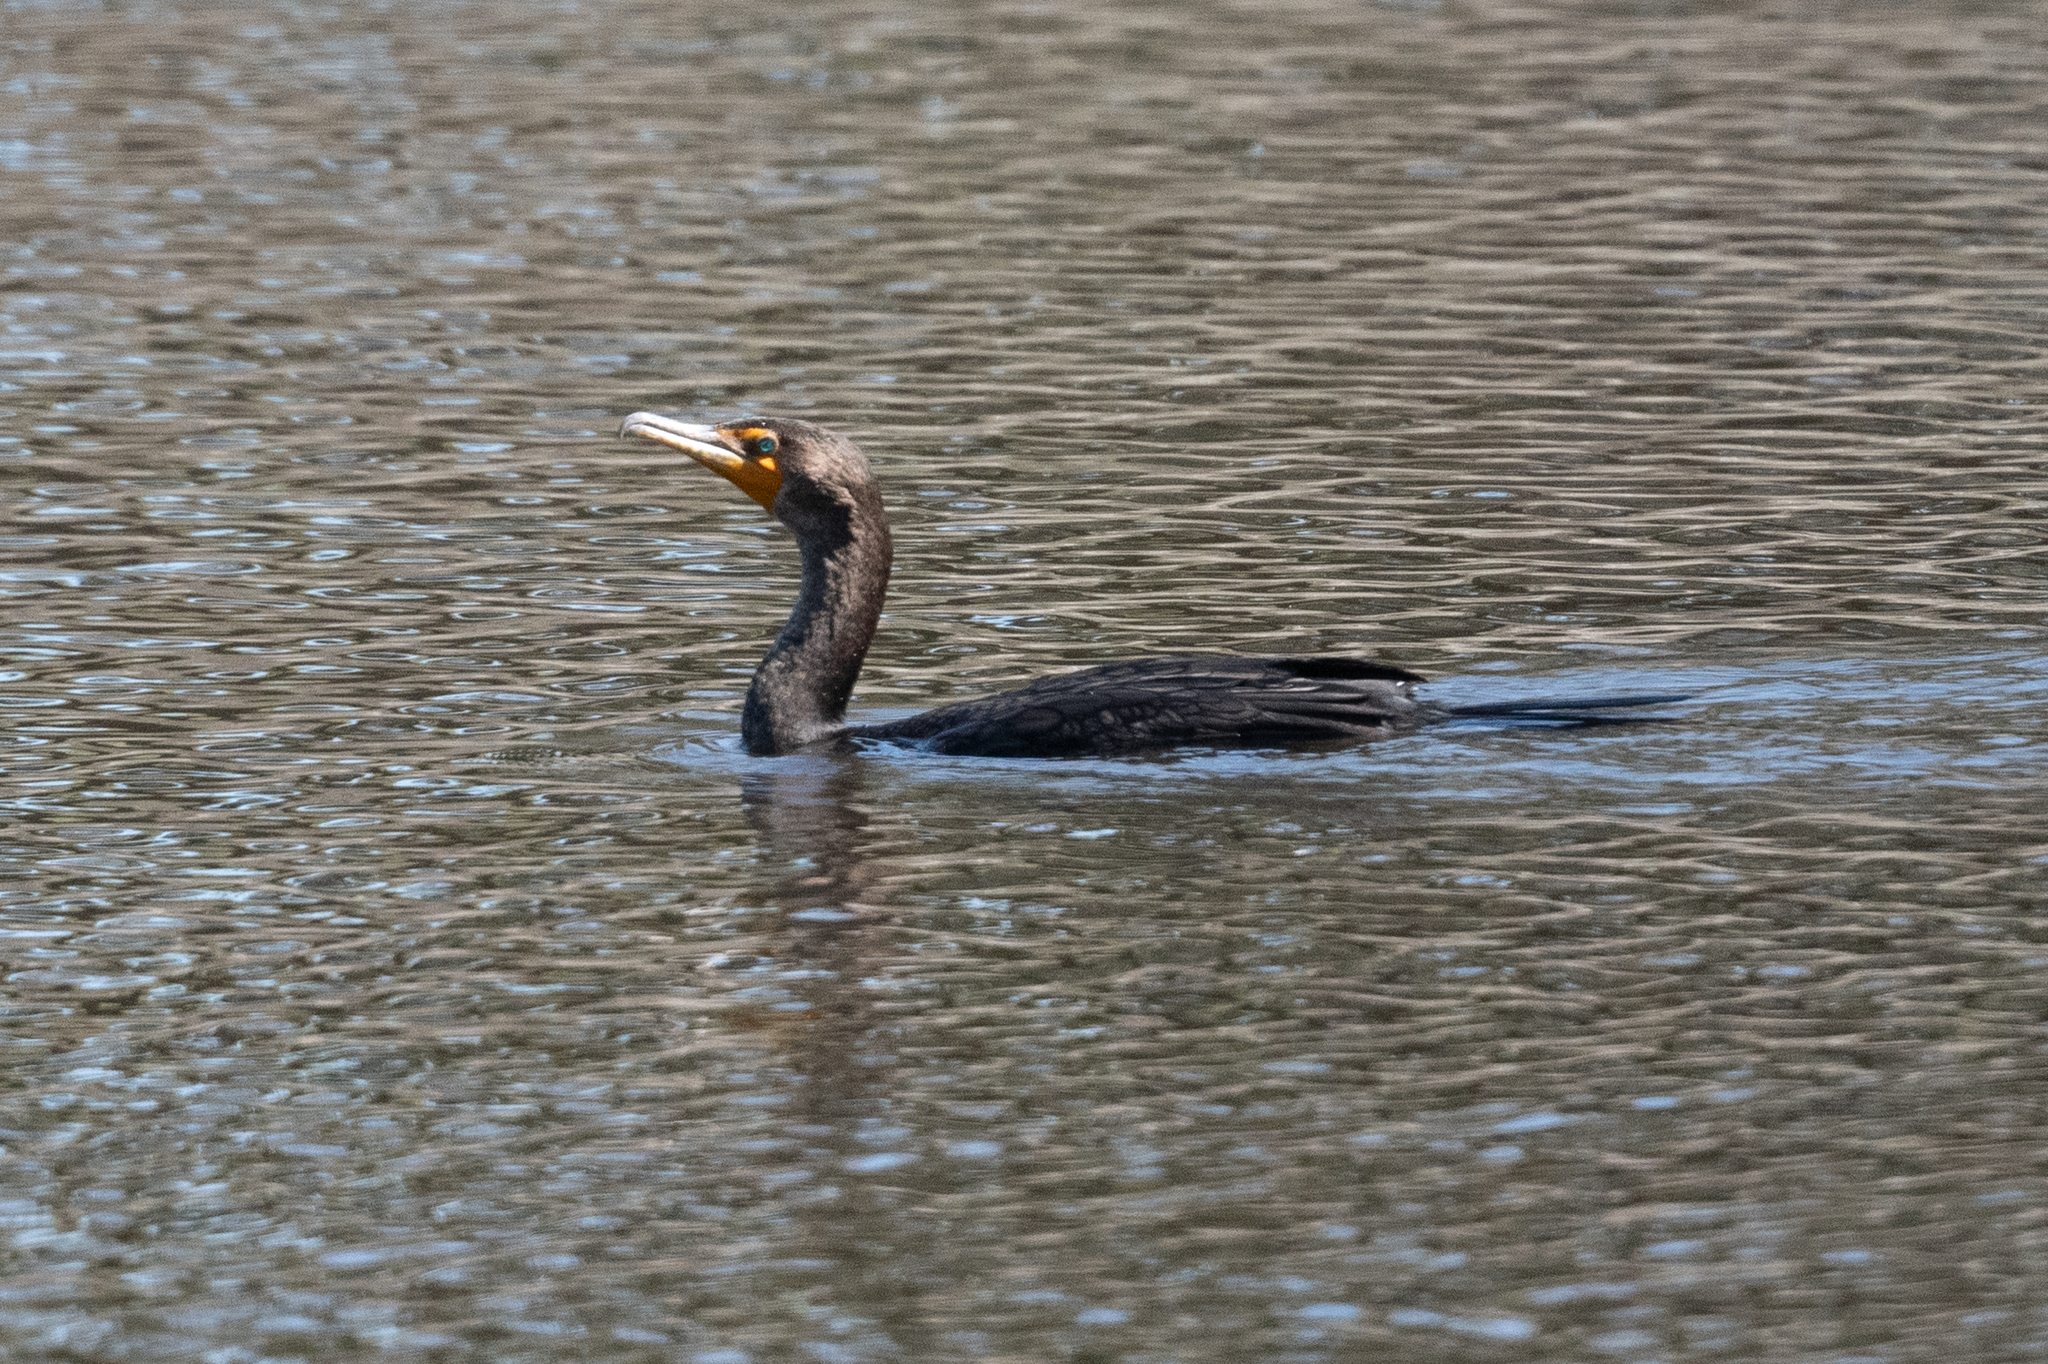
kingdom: Animalia
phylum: Chordata
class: Aves
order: Suliformes
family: Phalacrocoracidae
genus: Phalacrocorax
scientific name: Phalacrocorax auritus
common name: Double-crested cormorant
